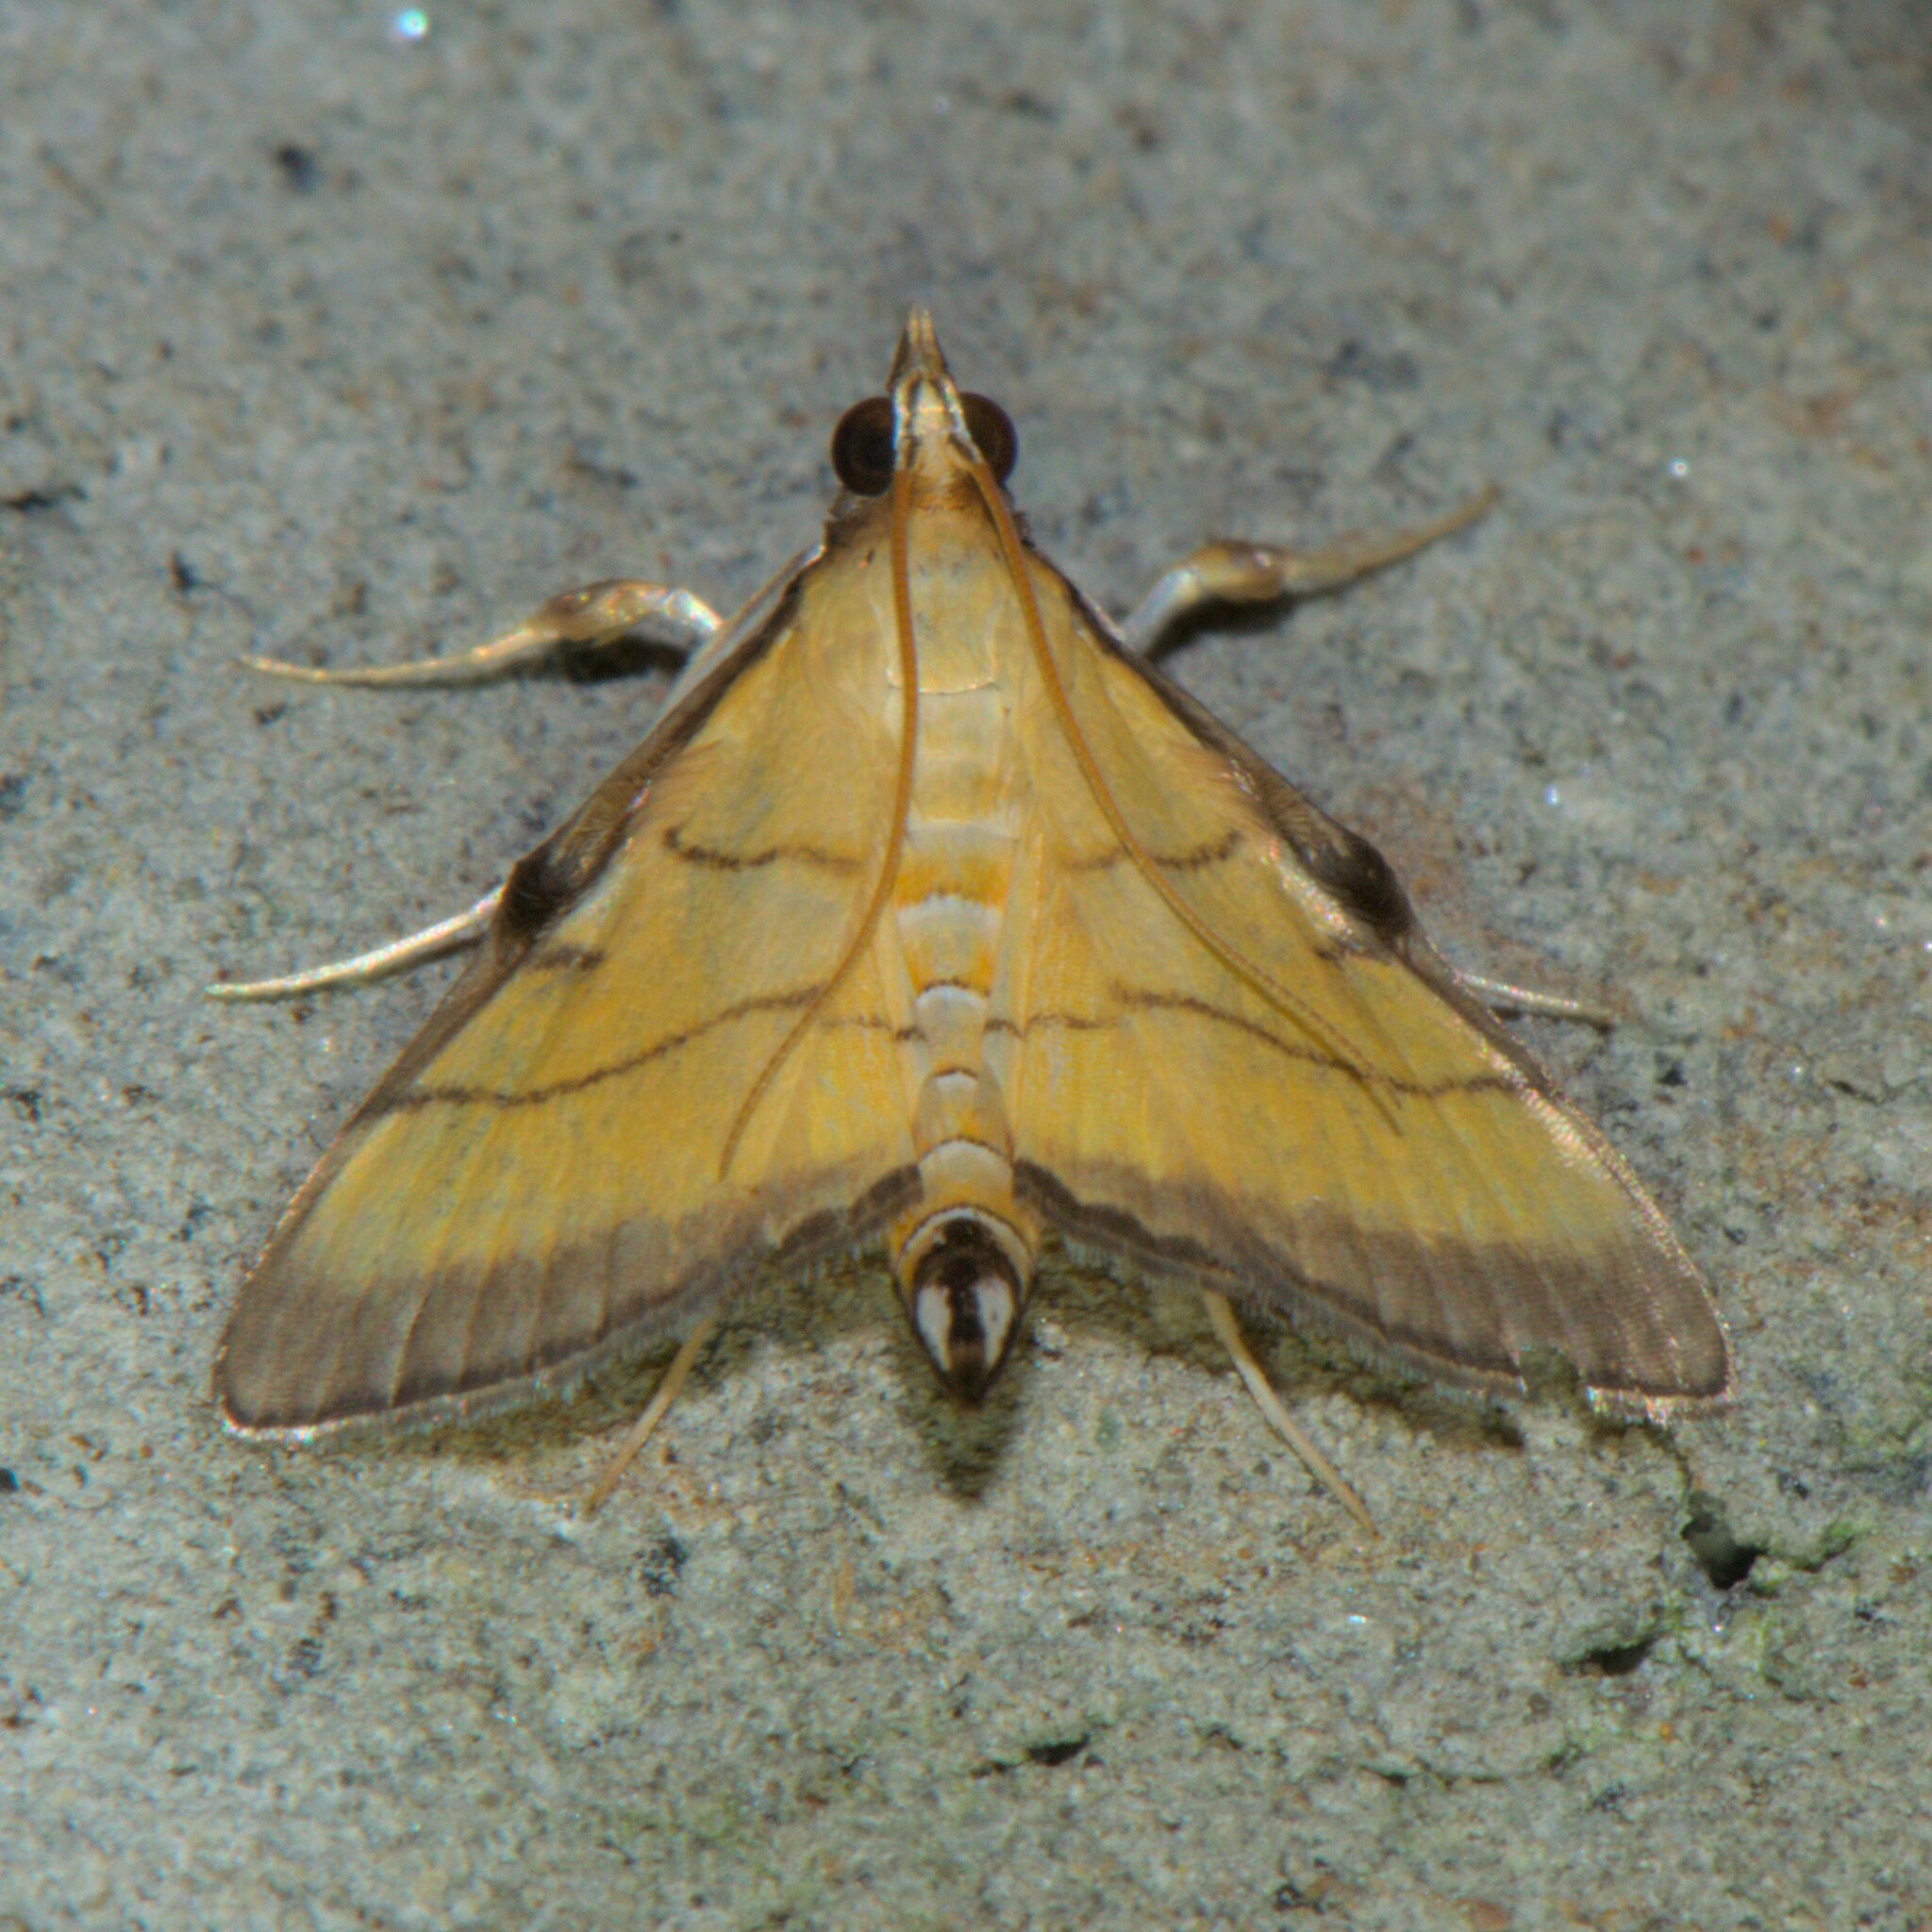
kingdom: Animalia
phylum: Arthropoda
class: Insecta
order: Lepidoptera
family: Crambidae
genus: Cnaphalocrocis
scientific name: Cnaphalocrocis medinalis
